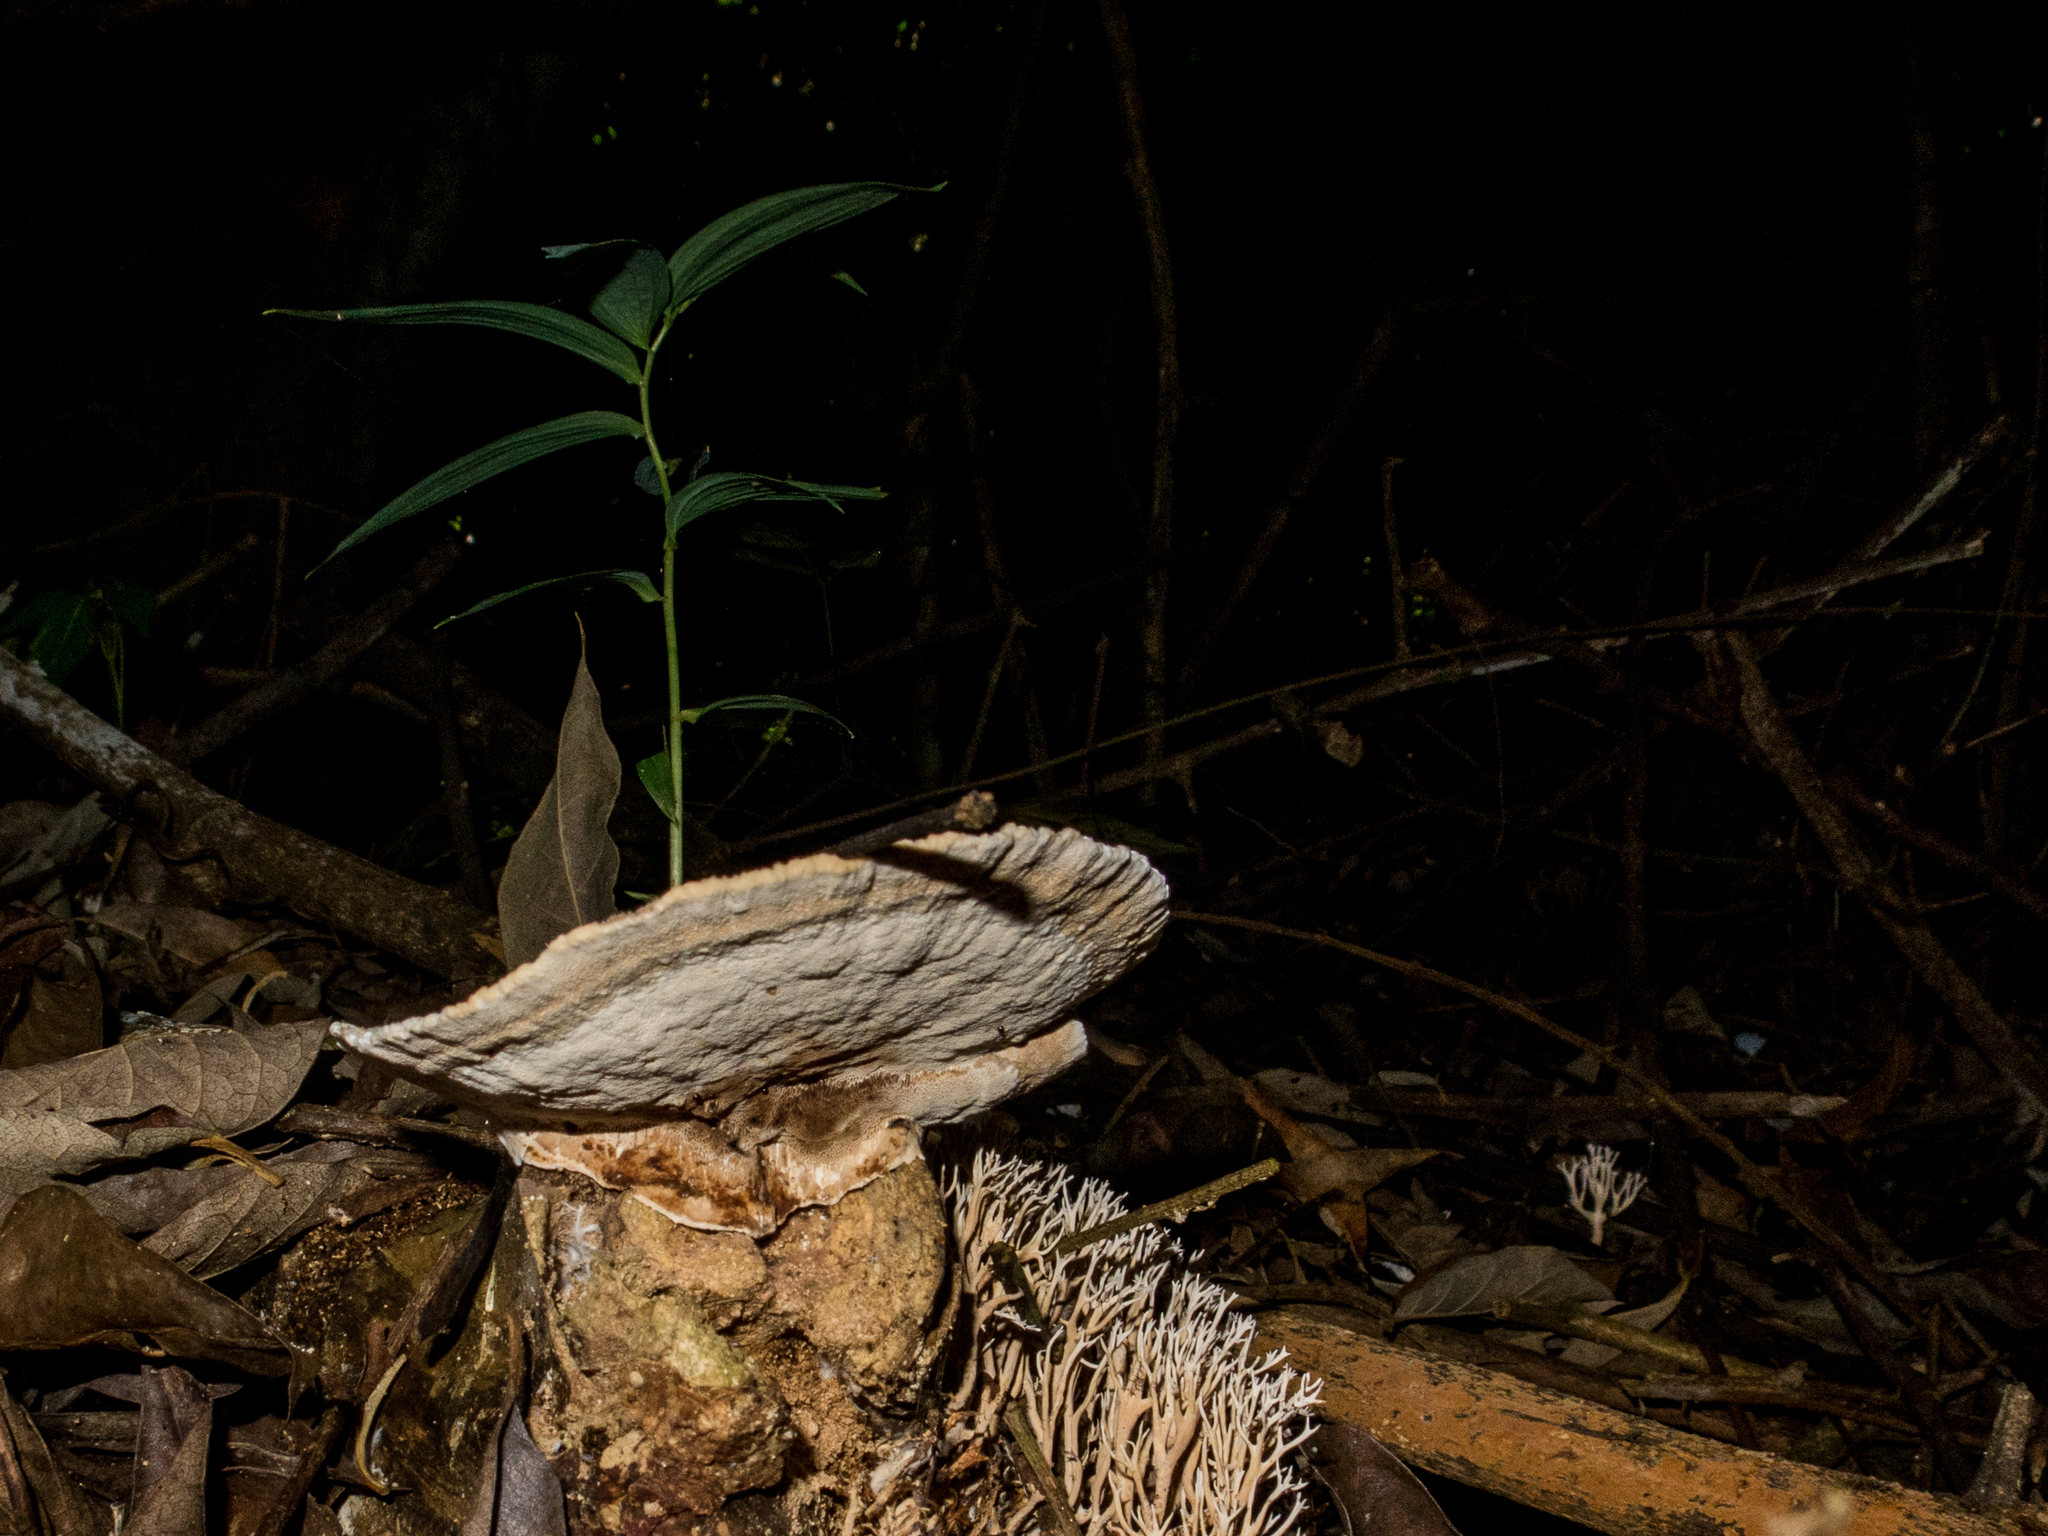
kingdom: Fungi
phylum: Basidiomycota
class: Agaricomycetes
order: Polyporales
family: Cerrenaceae
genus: Cerrena
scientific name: Cerrena caperata
